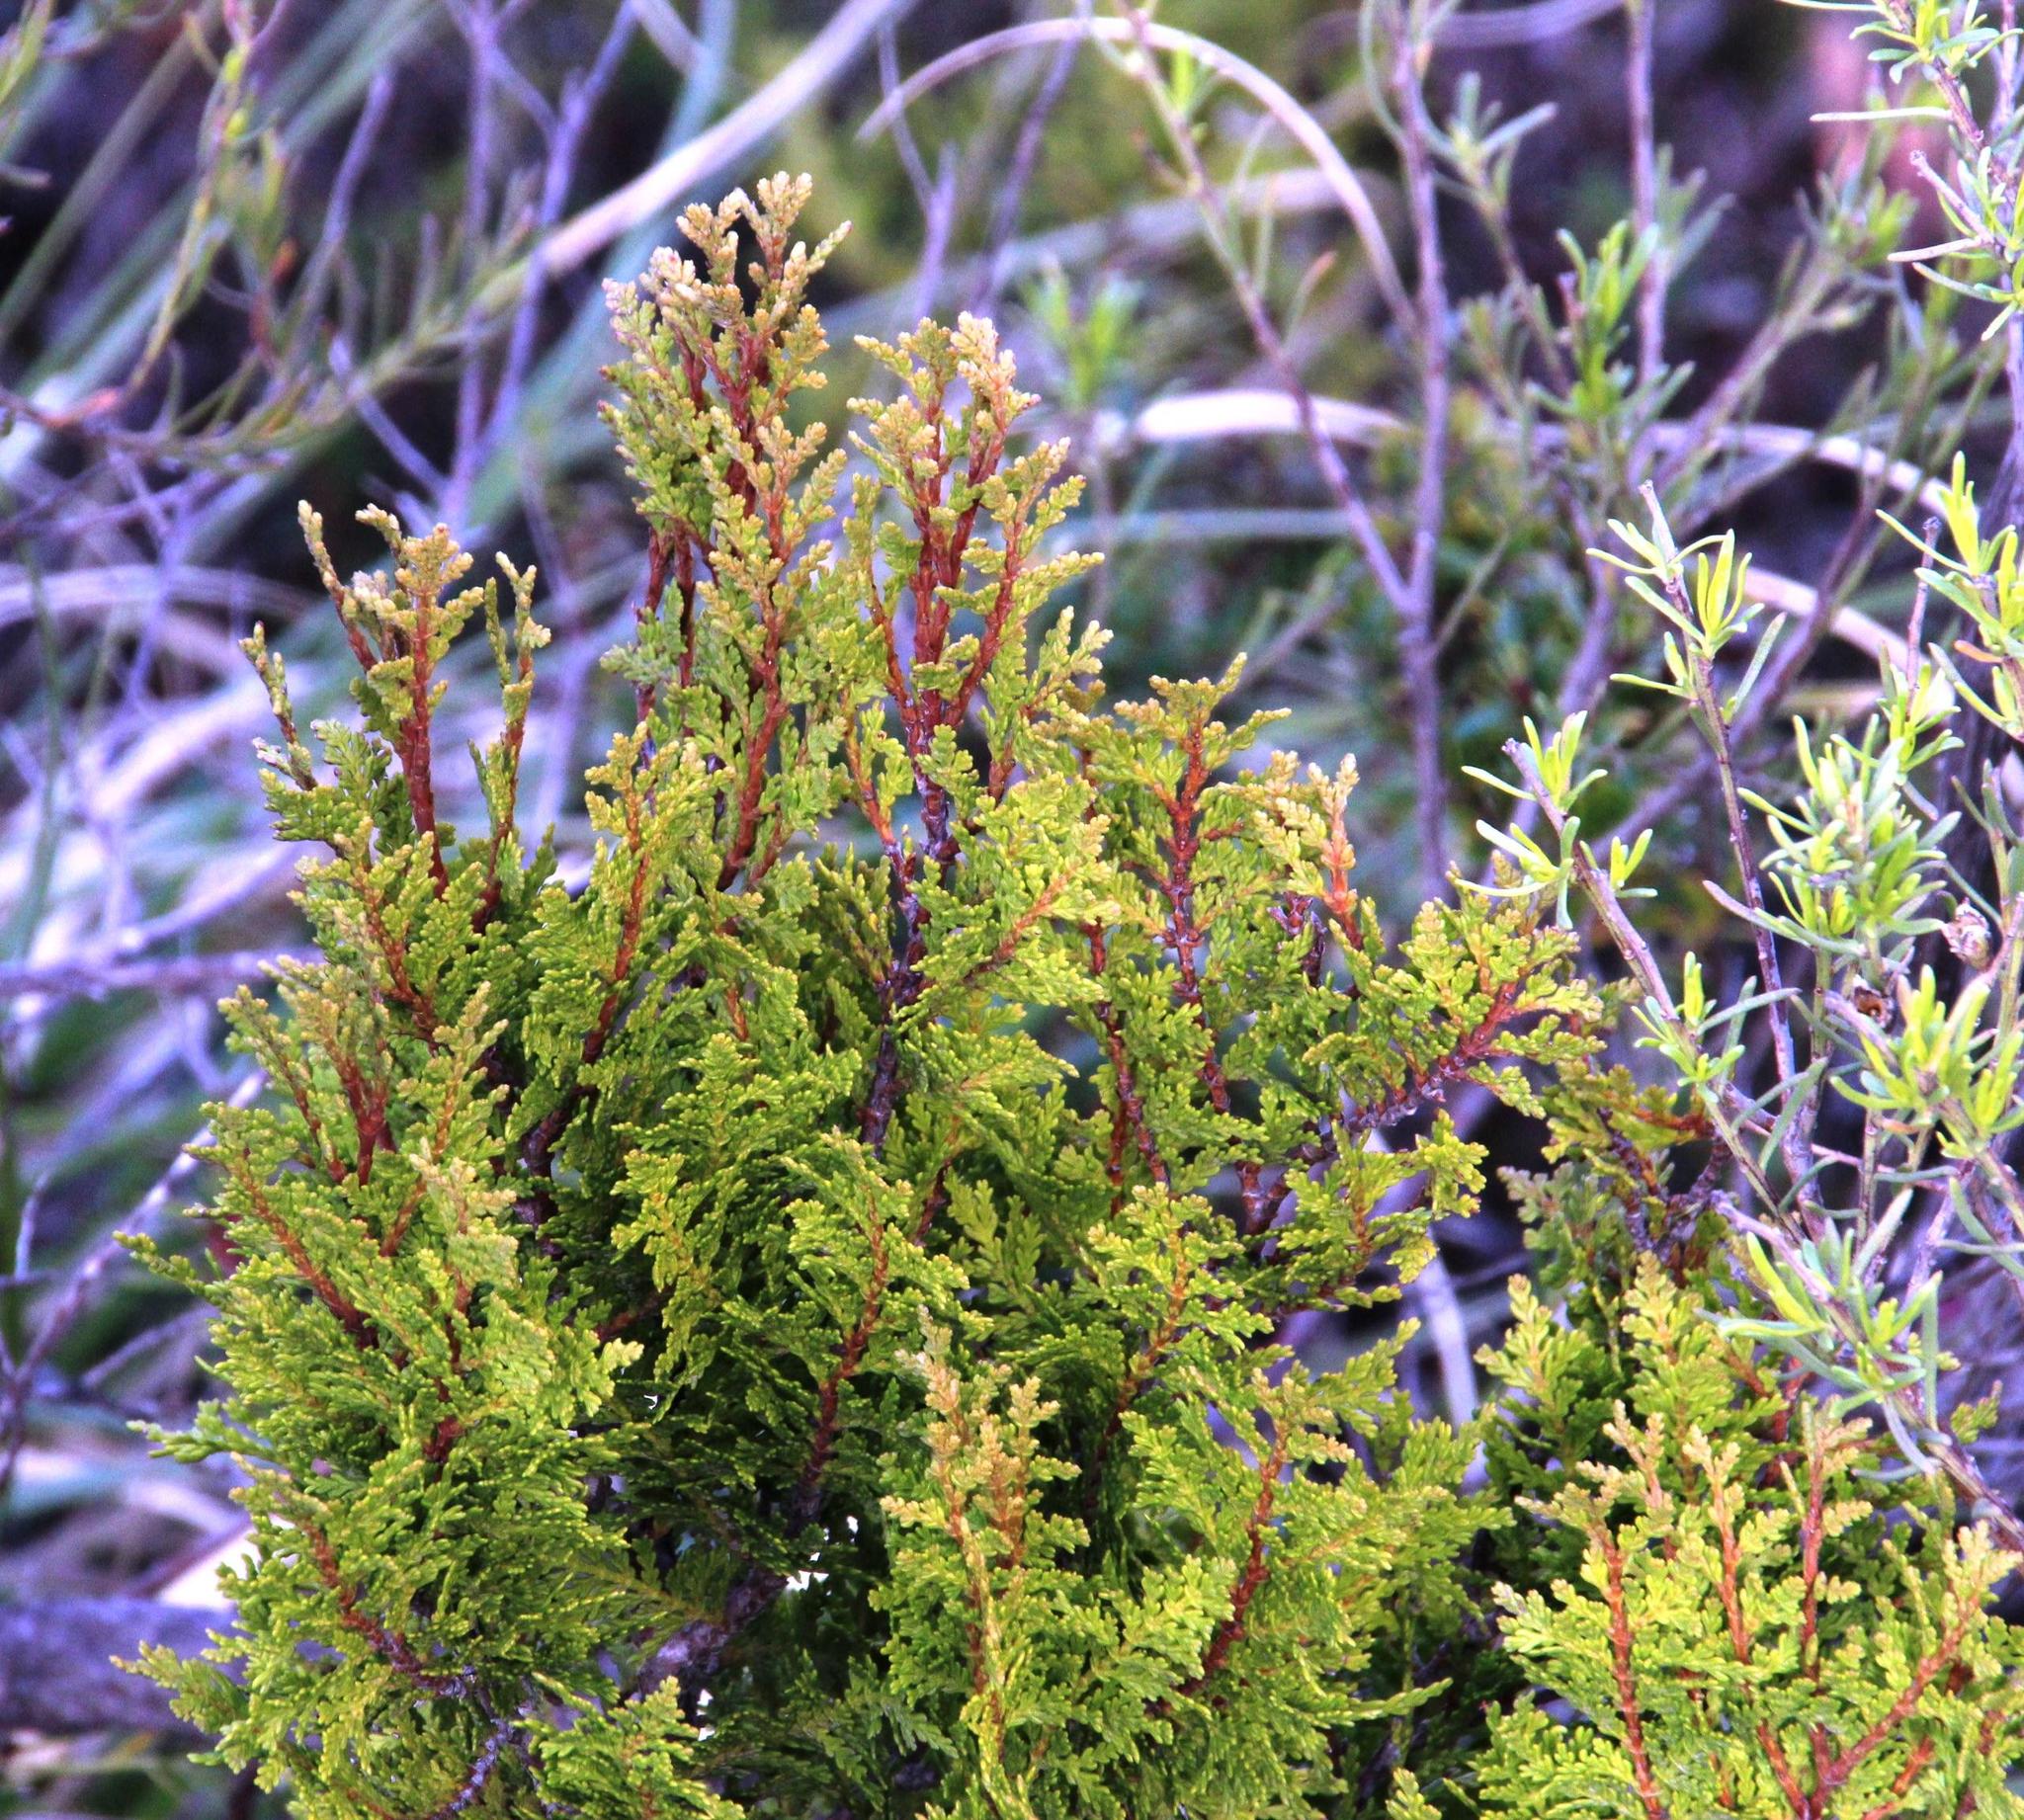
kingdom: Plantae
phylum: Tracheophyta
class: Pinopsida
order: Pinales
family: Cupressaceae
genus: Austrocedrus
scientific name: Austrocedrus chilensis
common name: Chilean incense-cedar
